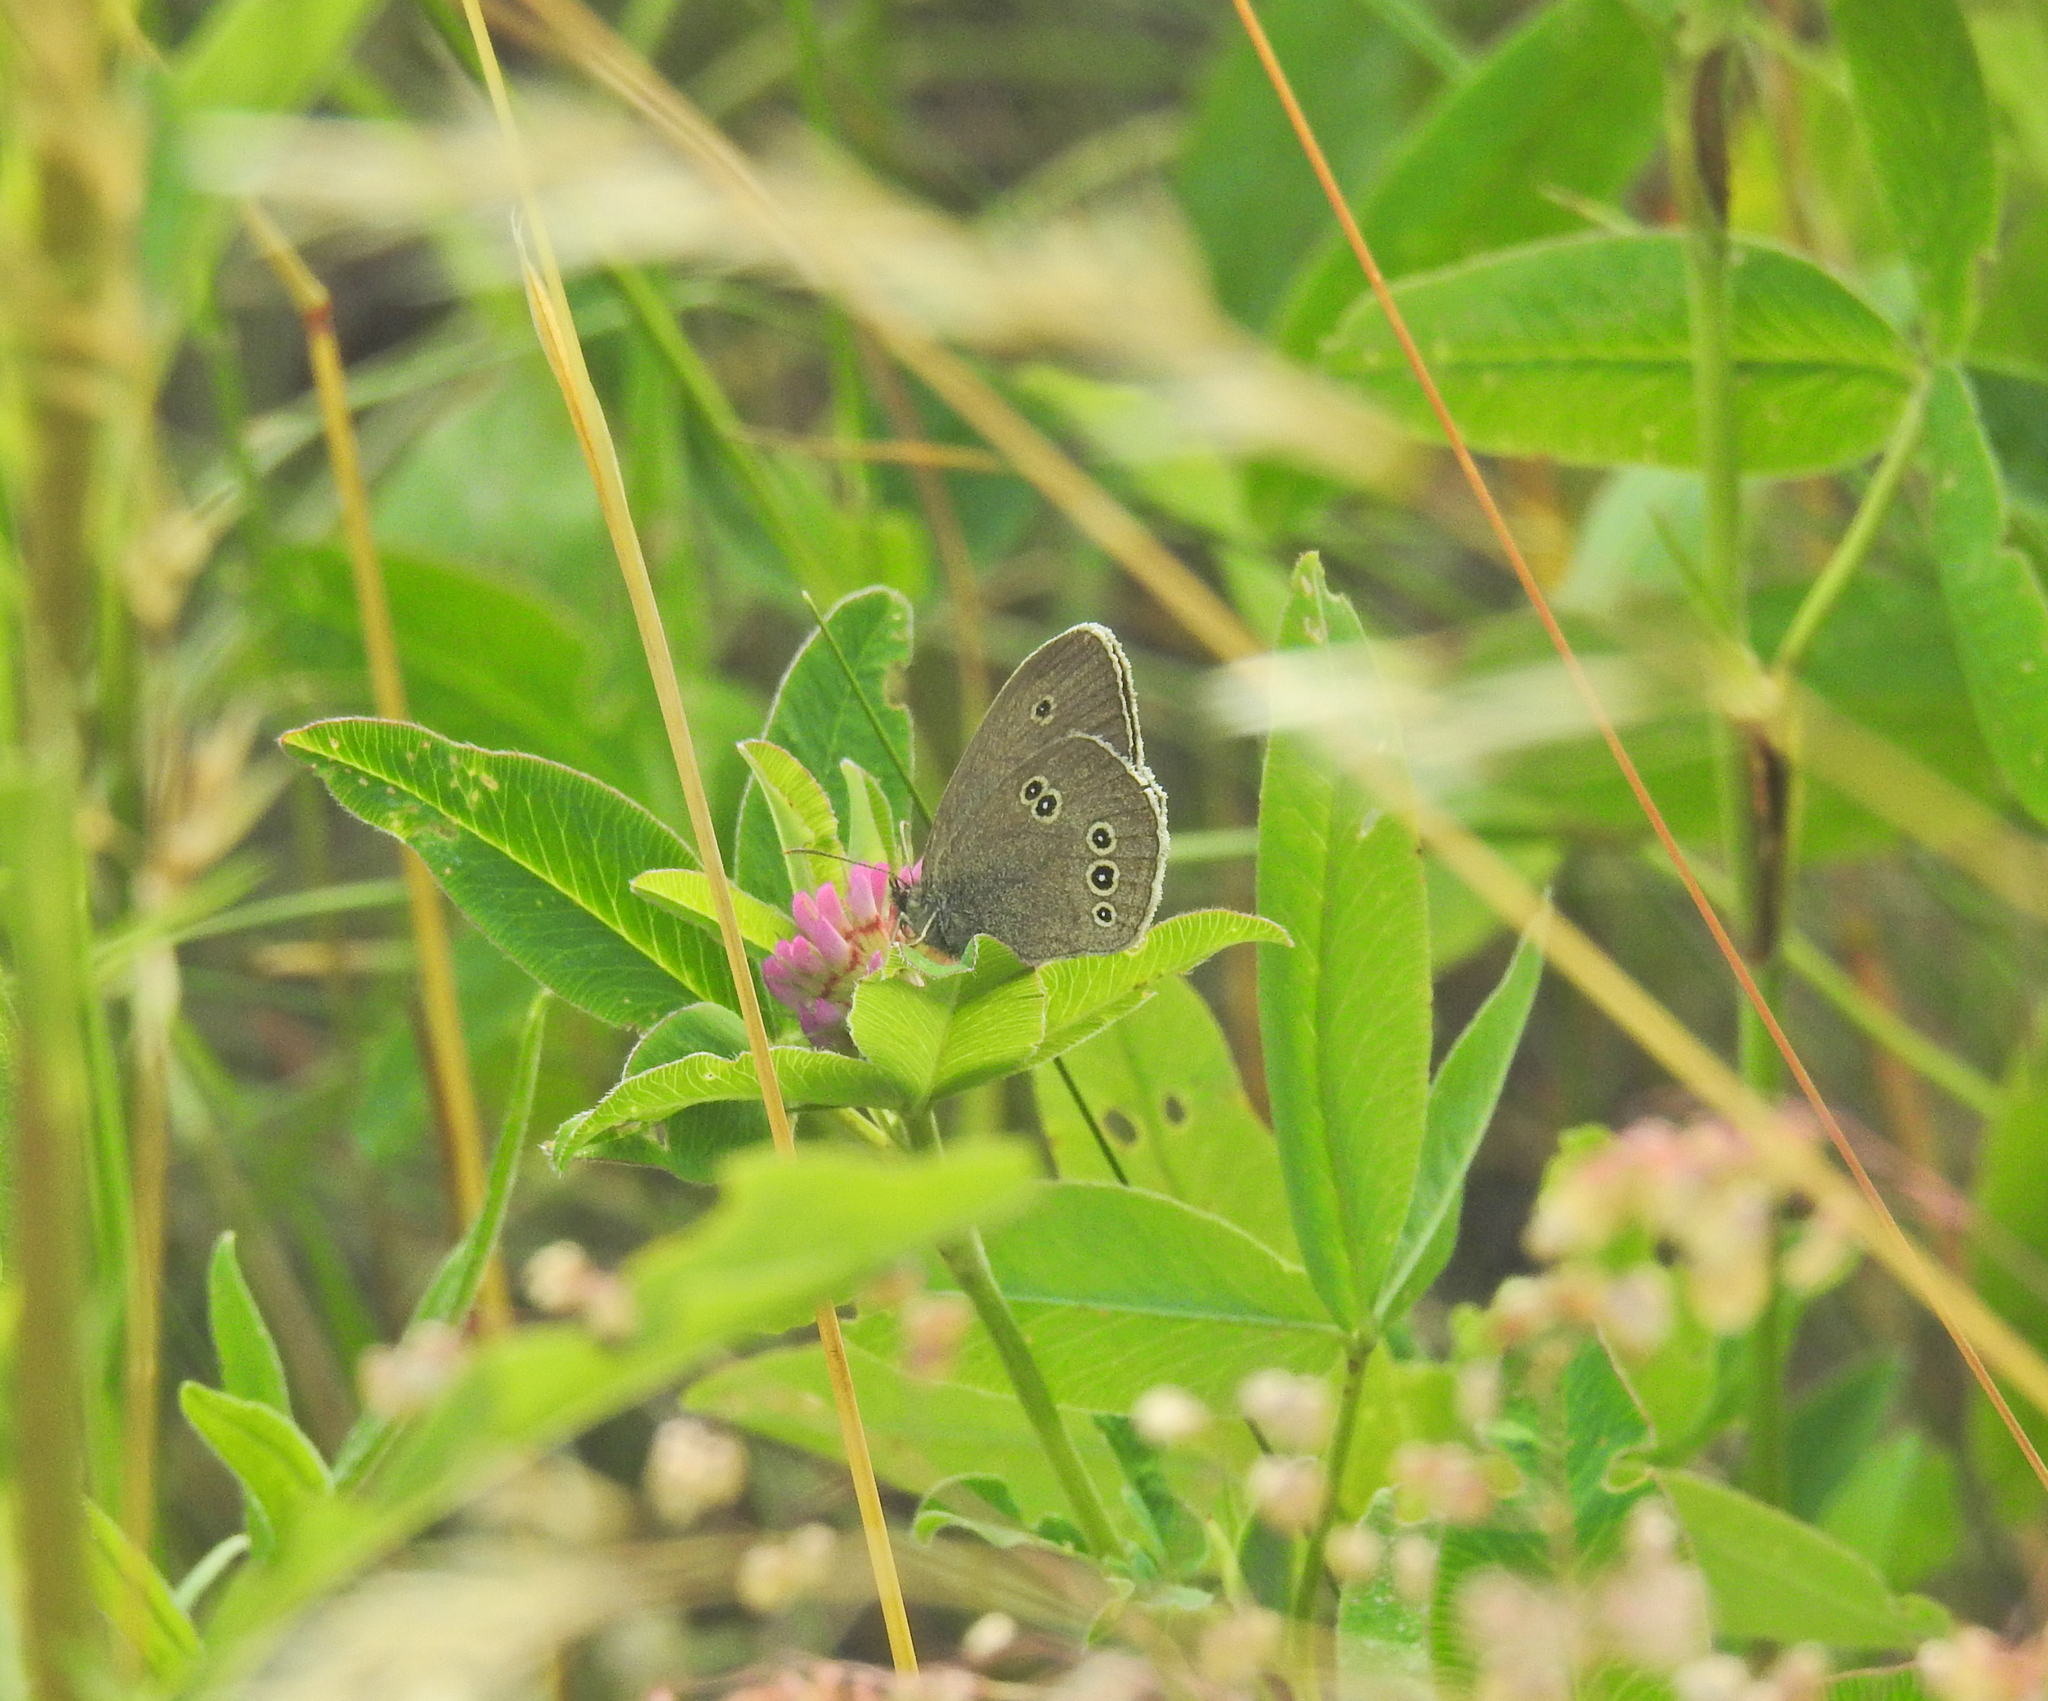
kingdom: Animalia
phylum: Arthropoda
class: Insecta
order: Lepidoptera
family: Nymphalidae
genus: Aphantopus
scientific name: Aphantopus hyperantus
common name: Ringlet
